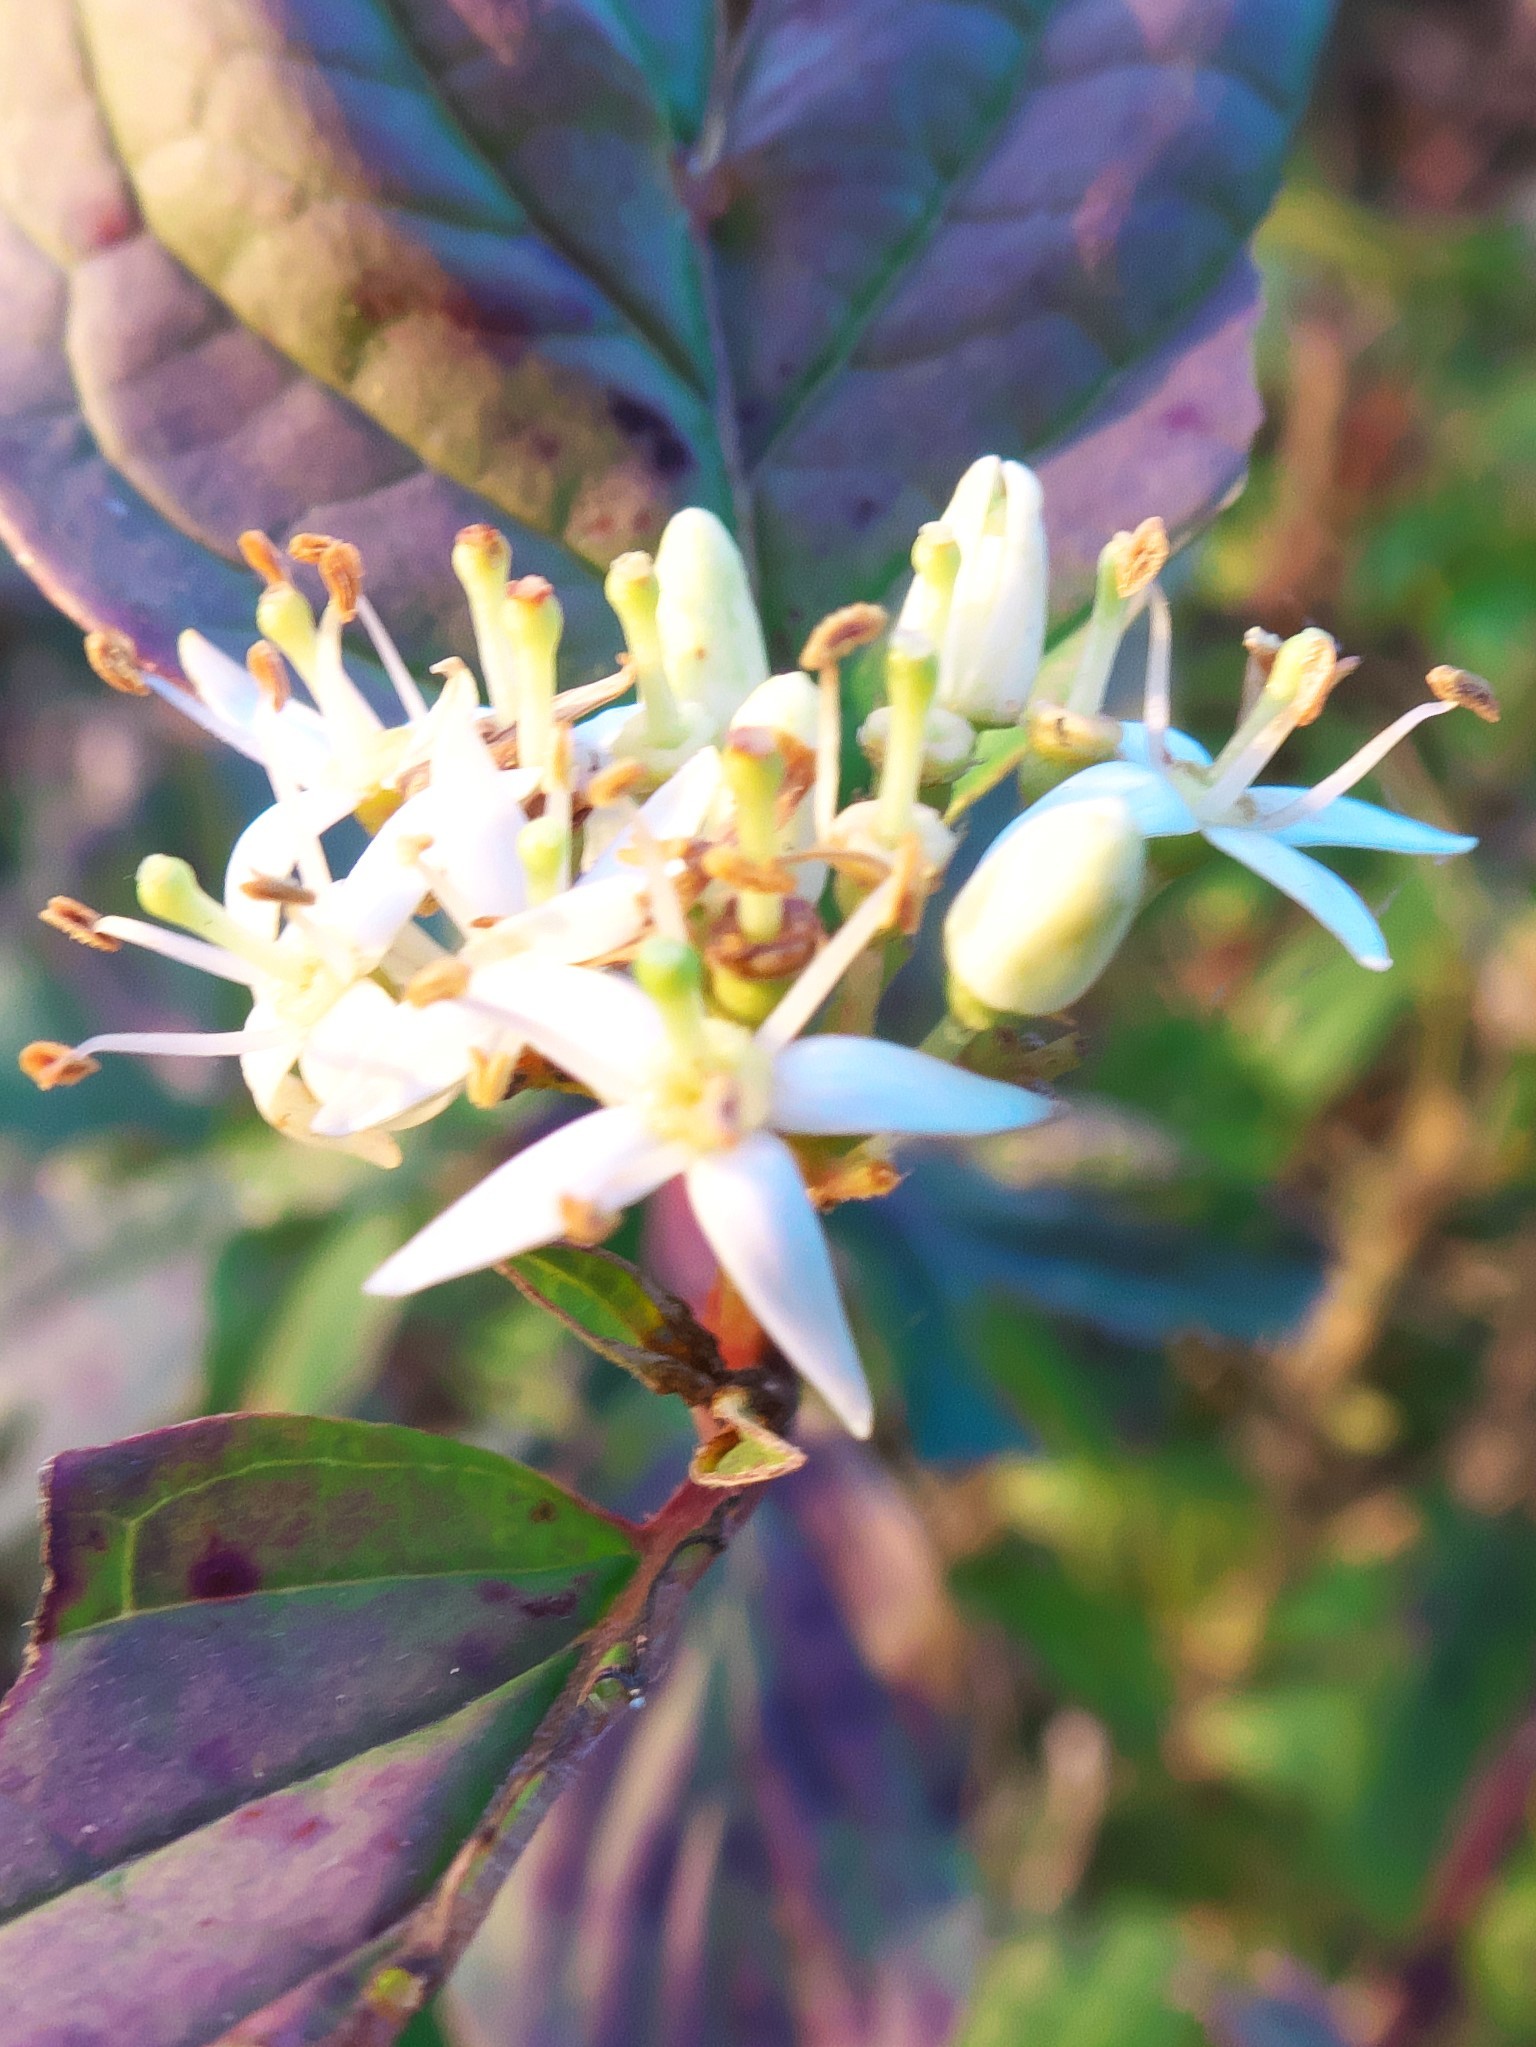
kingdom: Plantae
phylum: Tracheophyta
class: Magnoliopsida
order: Cornales
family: Cornaceae
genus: Cornus
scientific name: Cornus sanguinea
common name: Dogwood
